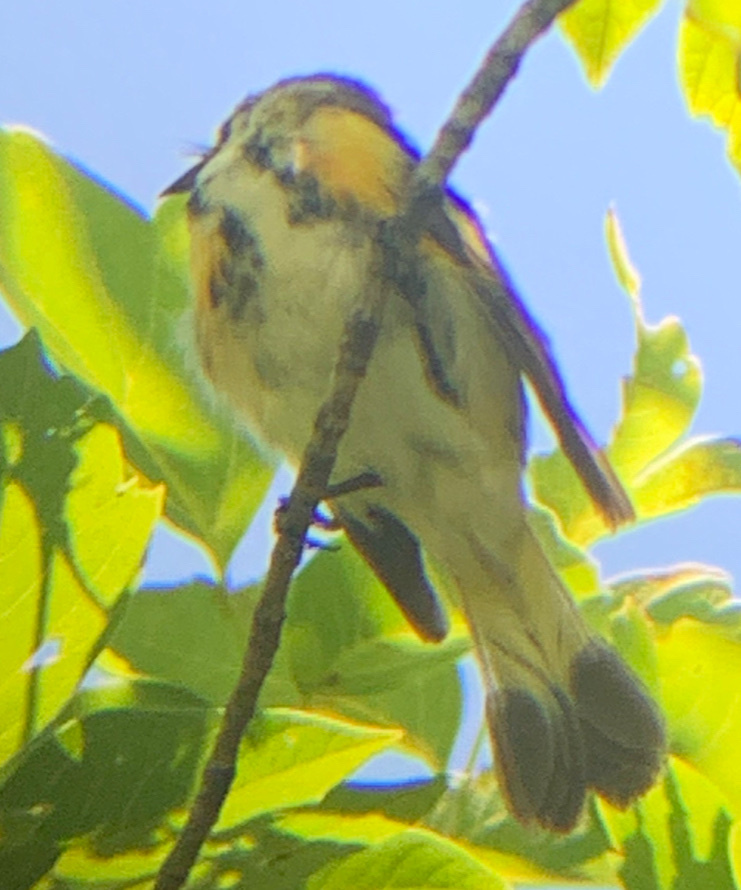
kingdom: Animalia
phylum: Chordata
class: Aves
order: Passeriformes
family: Parulidae
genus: Setophaga
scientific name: Setophaga coronata
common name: Myrtle warbler
